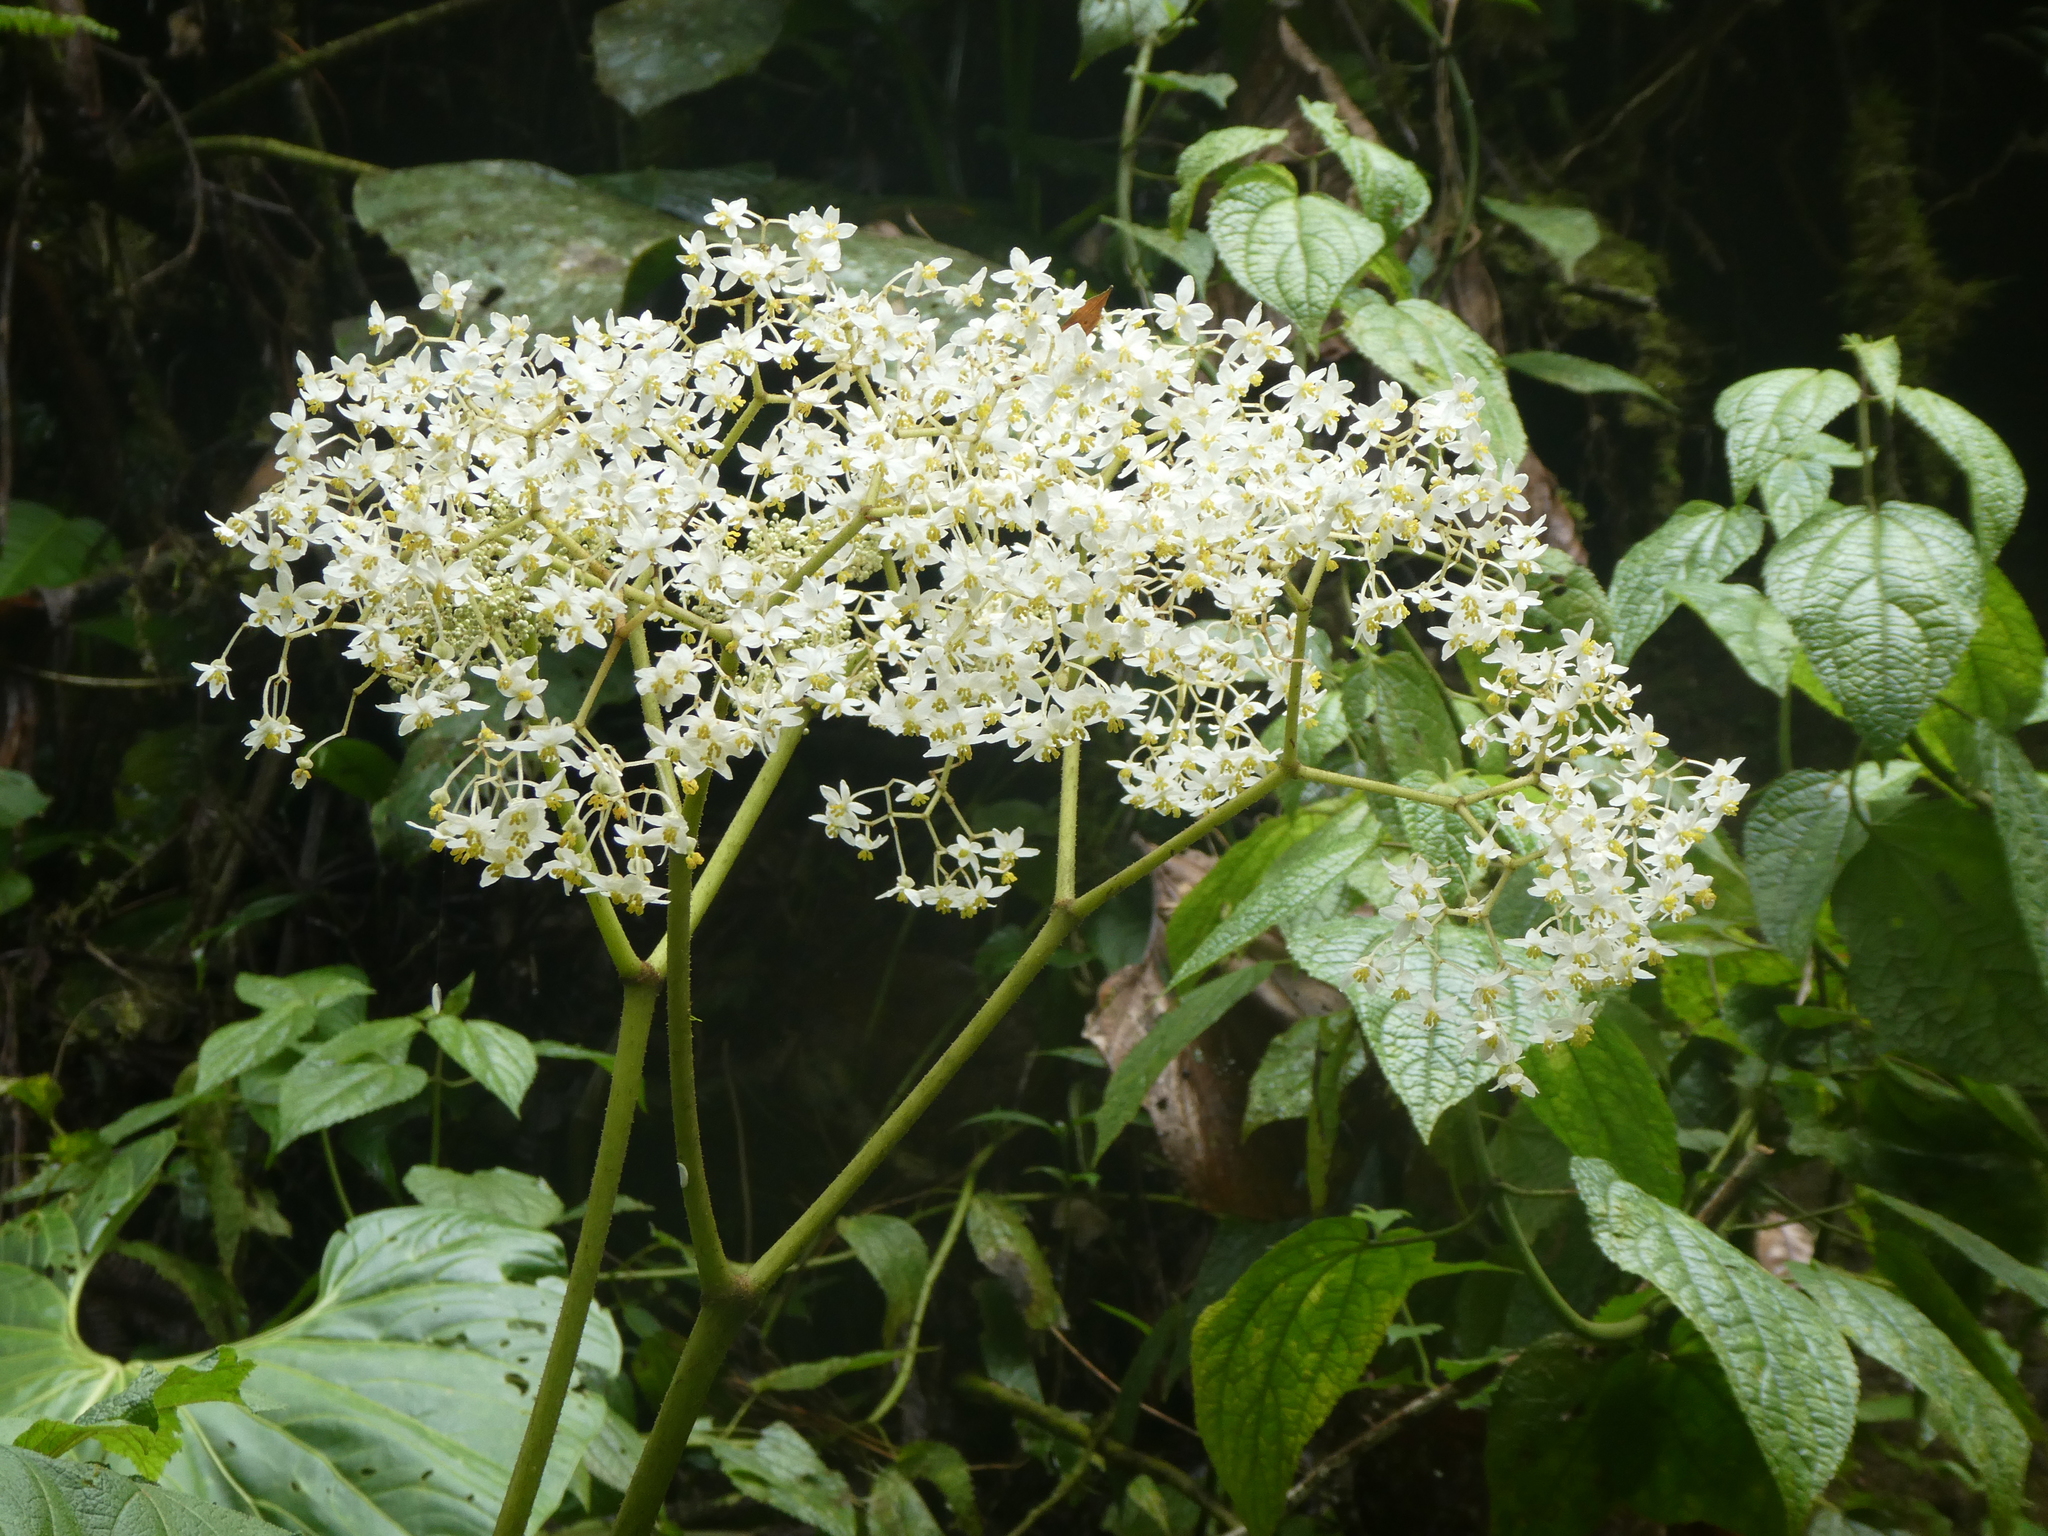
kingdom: Plantae
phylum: Tracheophyta
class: Magnoliopsida
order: Cucurbitales
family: Begoniaceae
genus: Begonia
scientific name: Begonia parviflora
